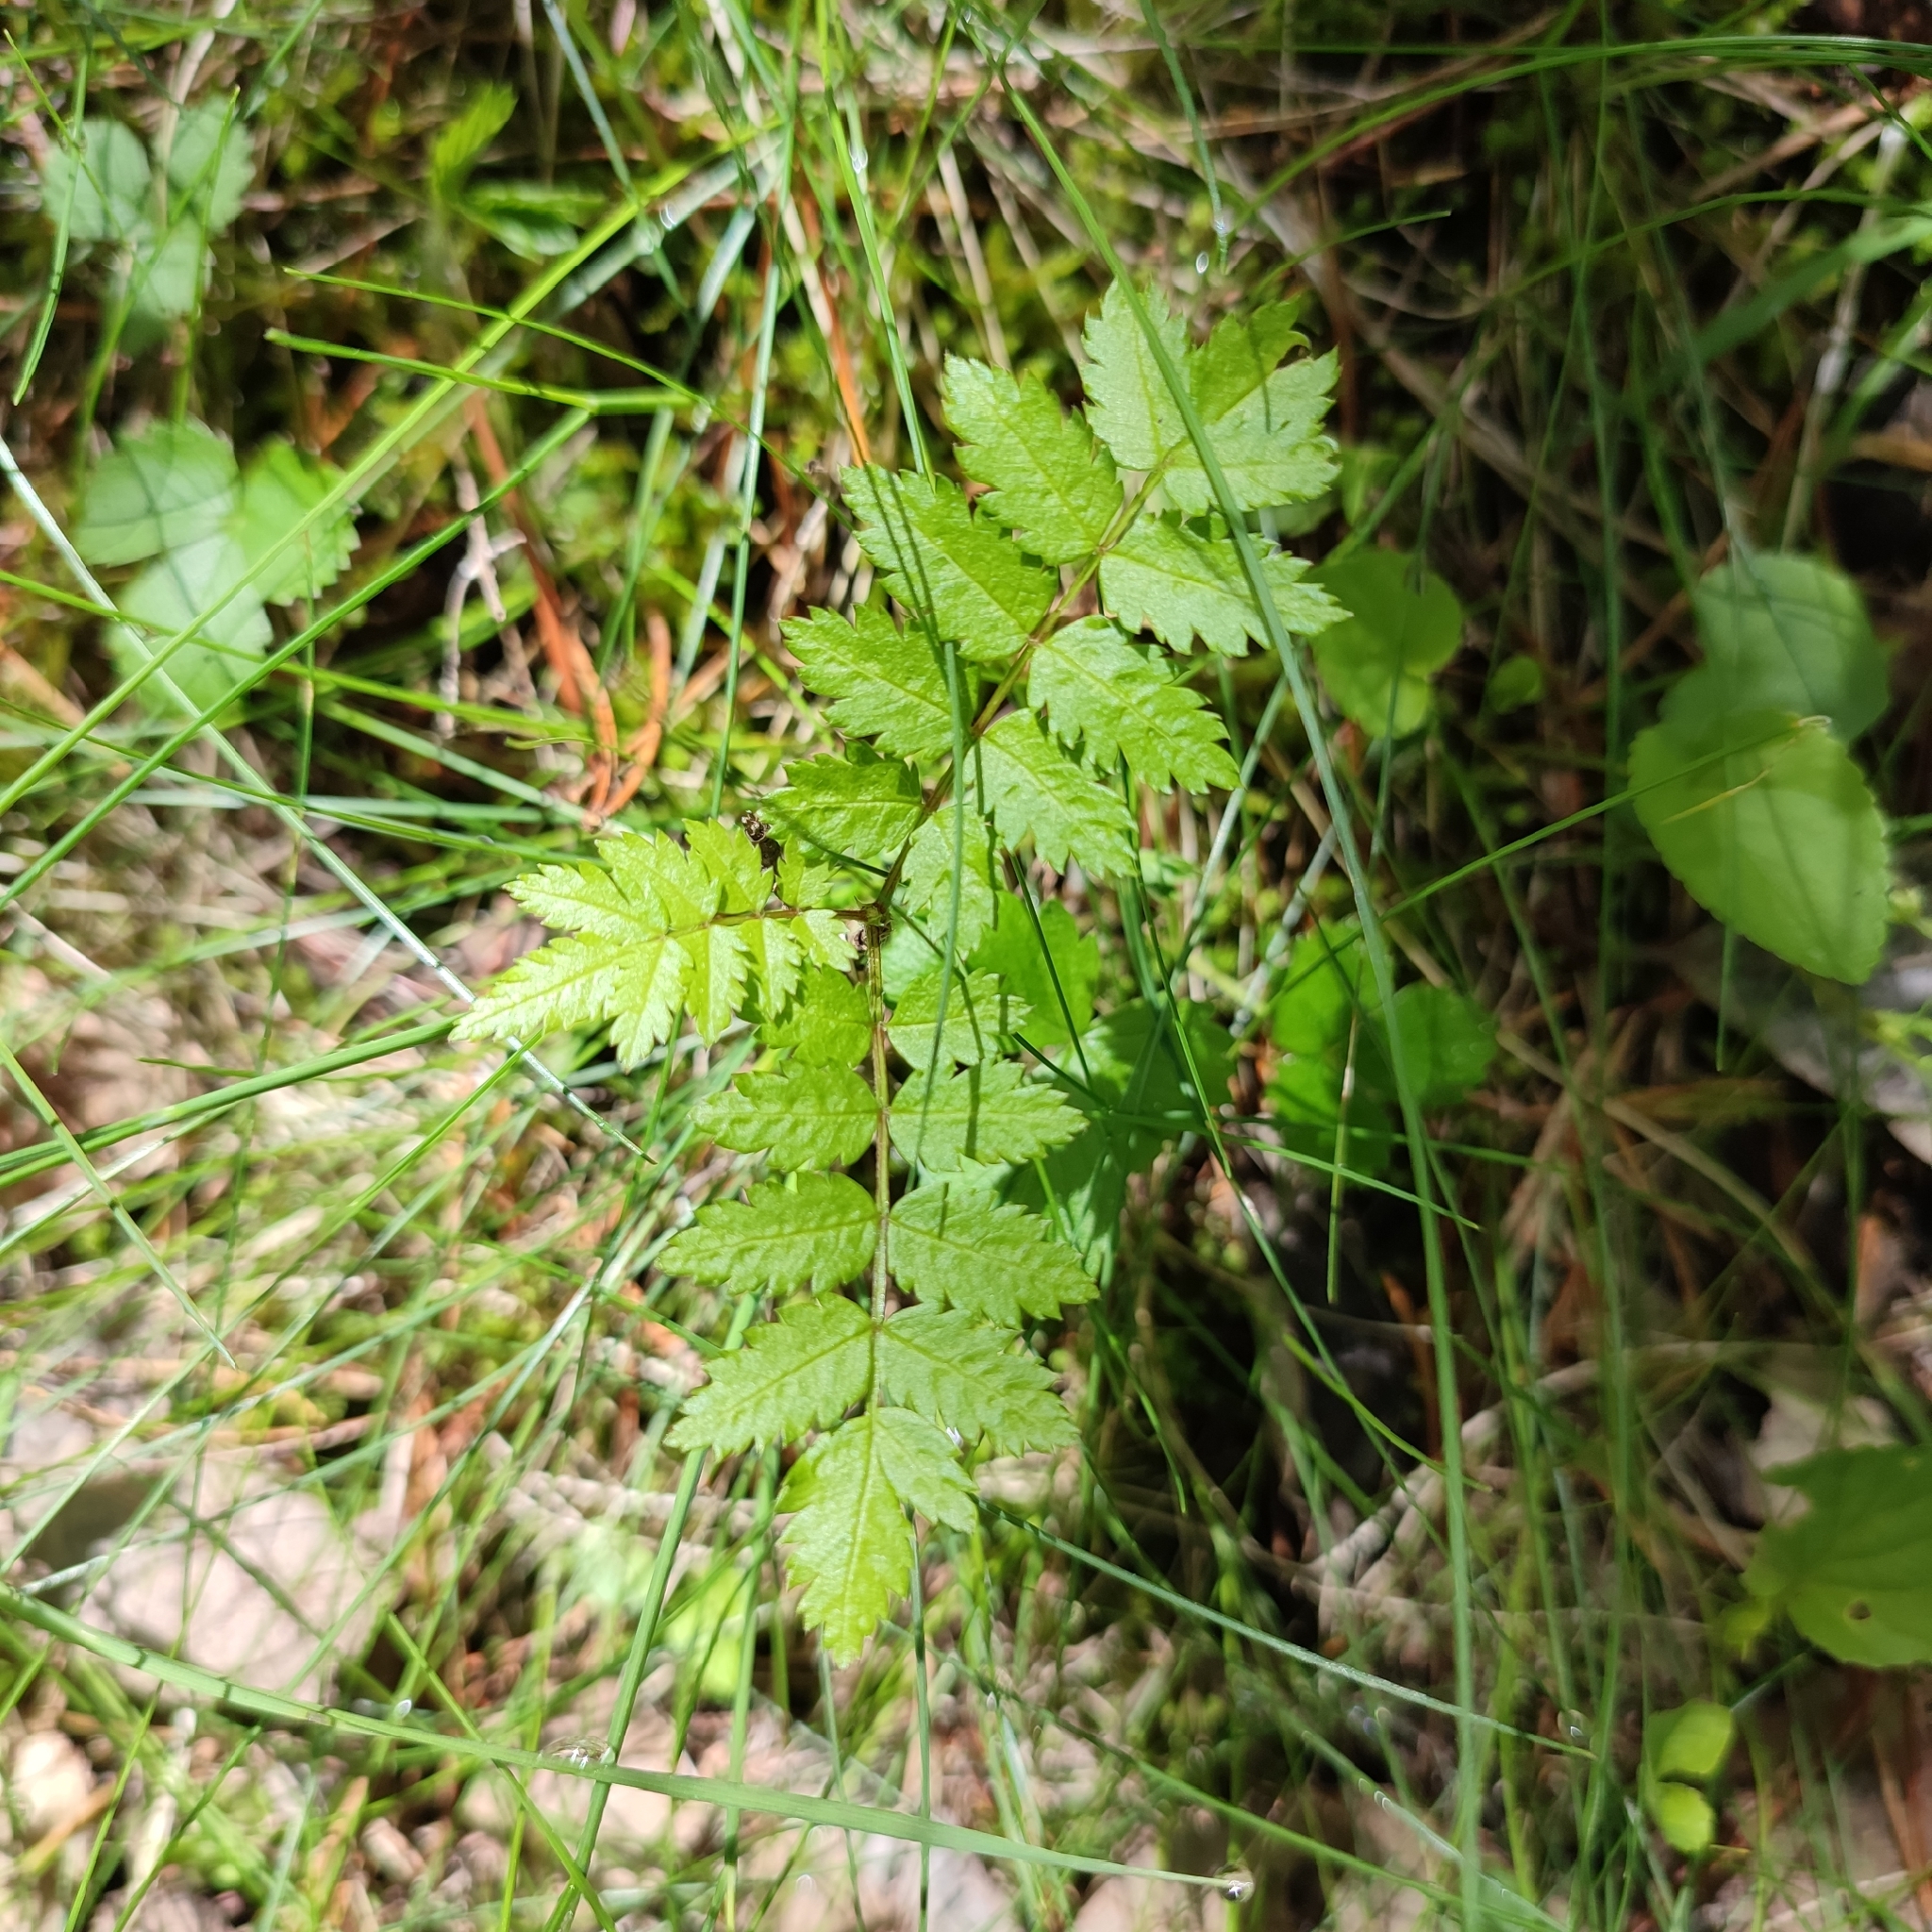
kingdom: Plantae
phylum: Tracheophyta
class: Magnoliopsida
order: Rosales
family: Rosaceae
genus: Sorbus
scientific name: Sorbus aucuparia
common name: Rowan
